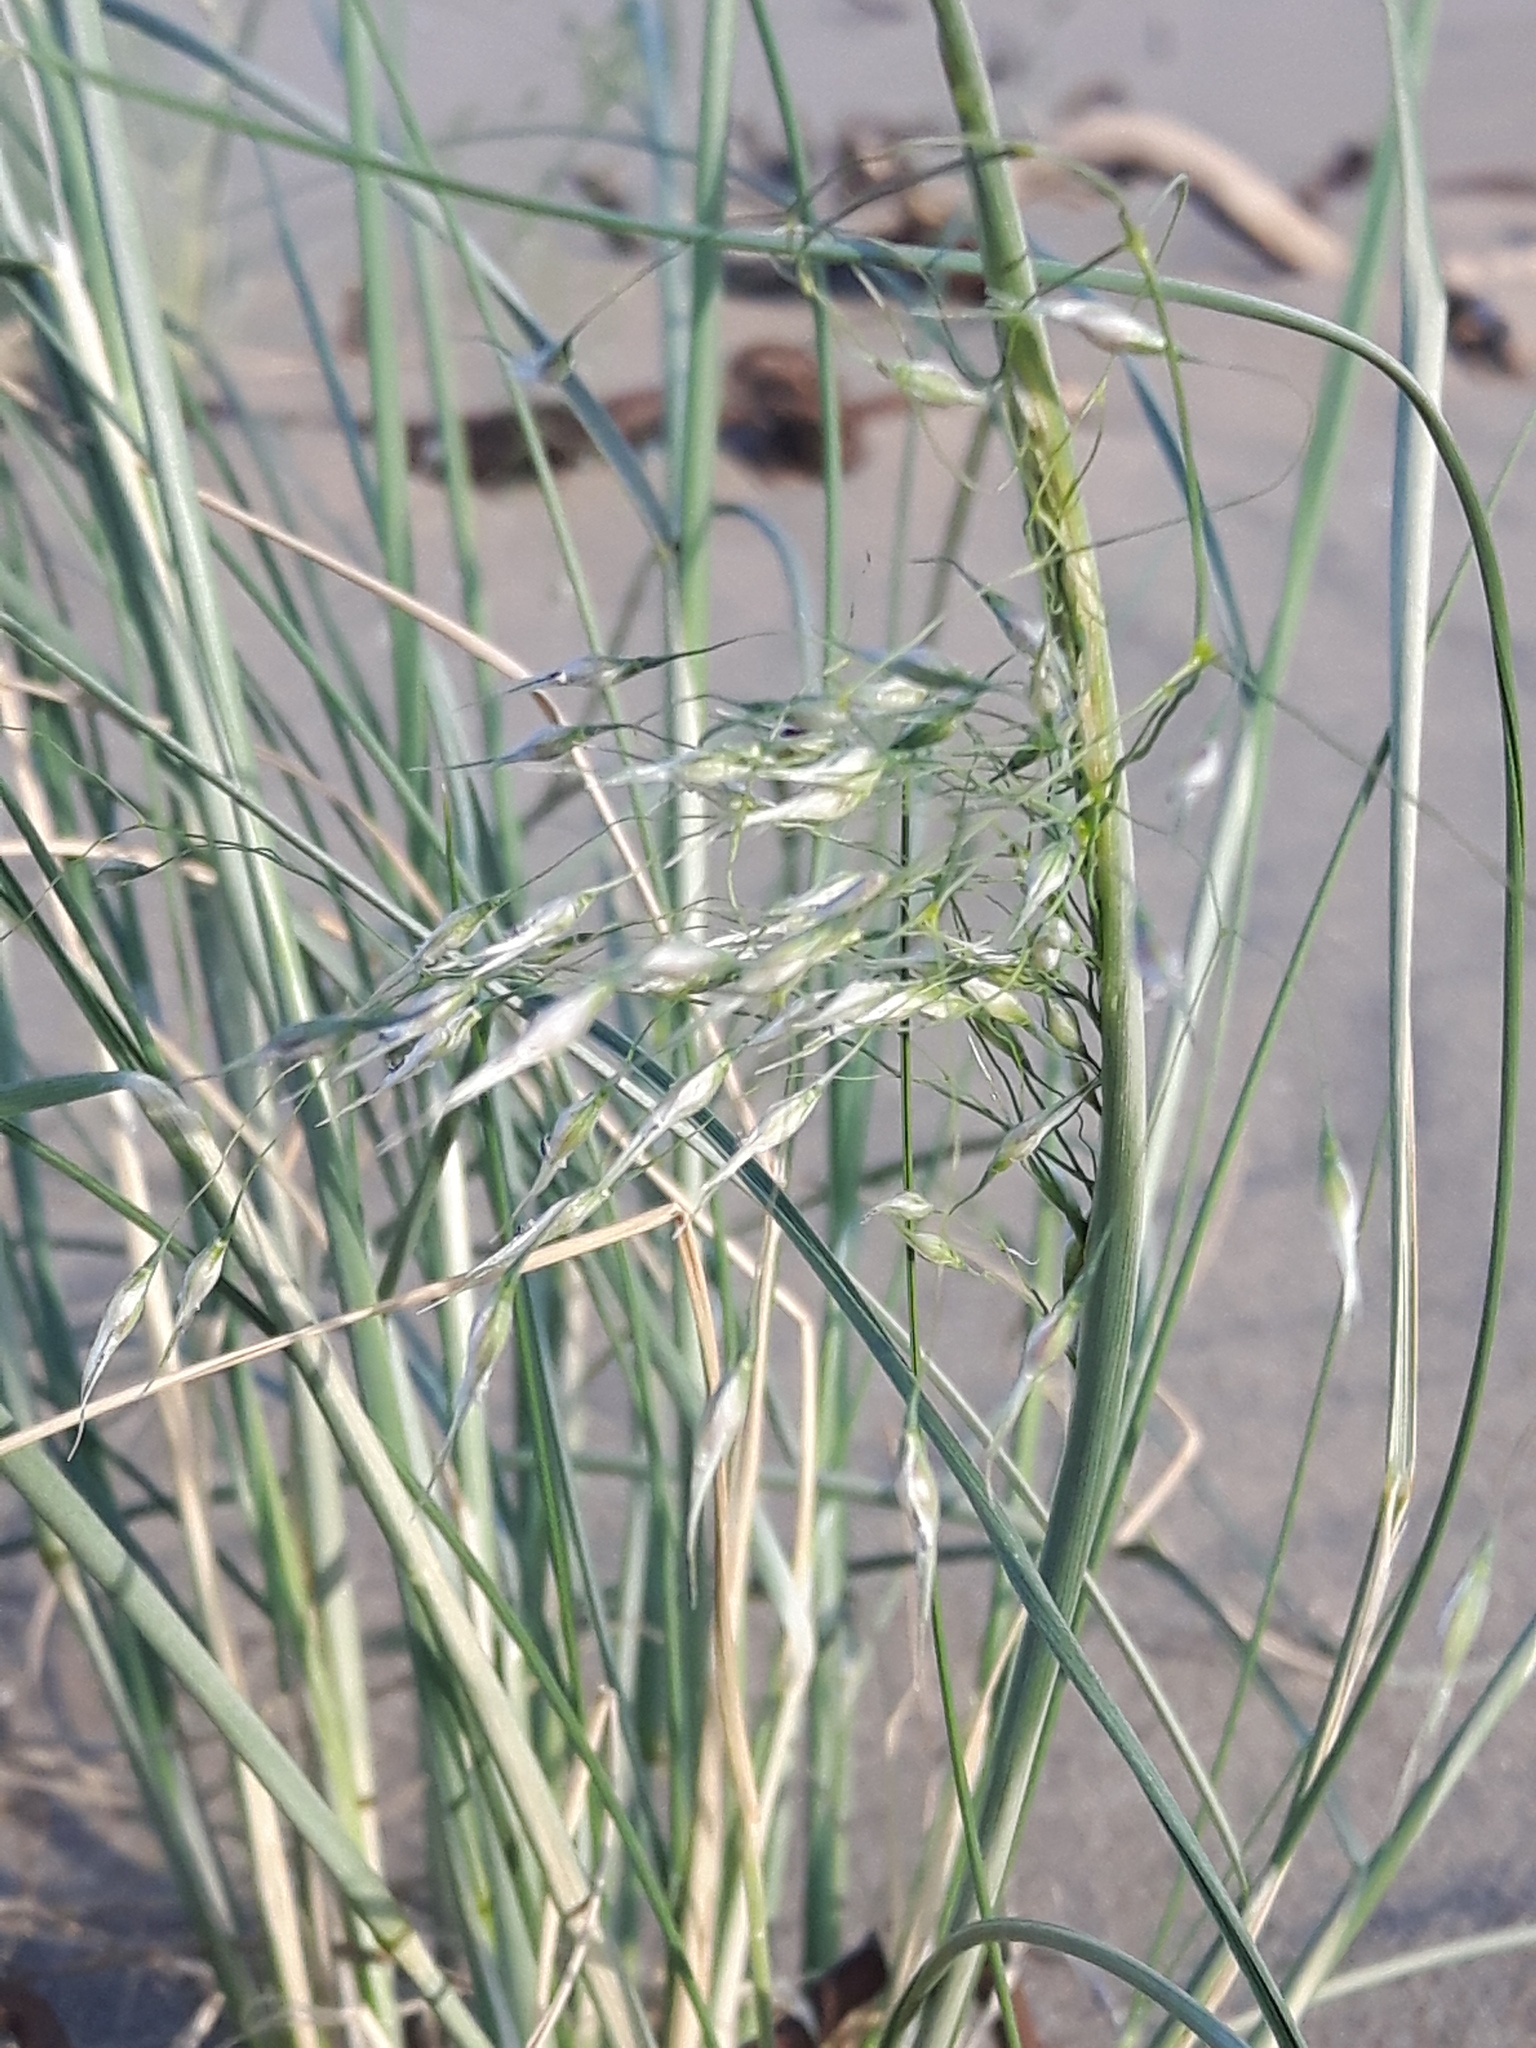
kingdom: Plantae
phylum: Tracheophyta
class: Liliopsida
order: Poales
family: Poaceae
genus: Eriocoma
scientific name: Eriocoma hymenoides
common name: Indian mountain ricegrass
